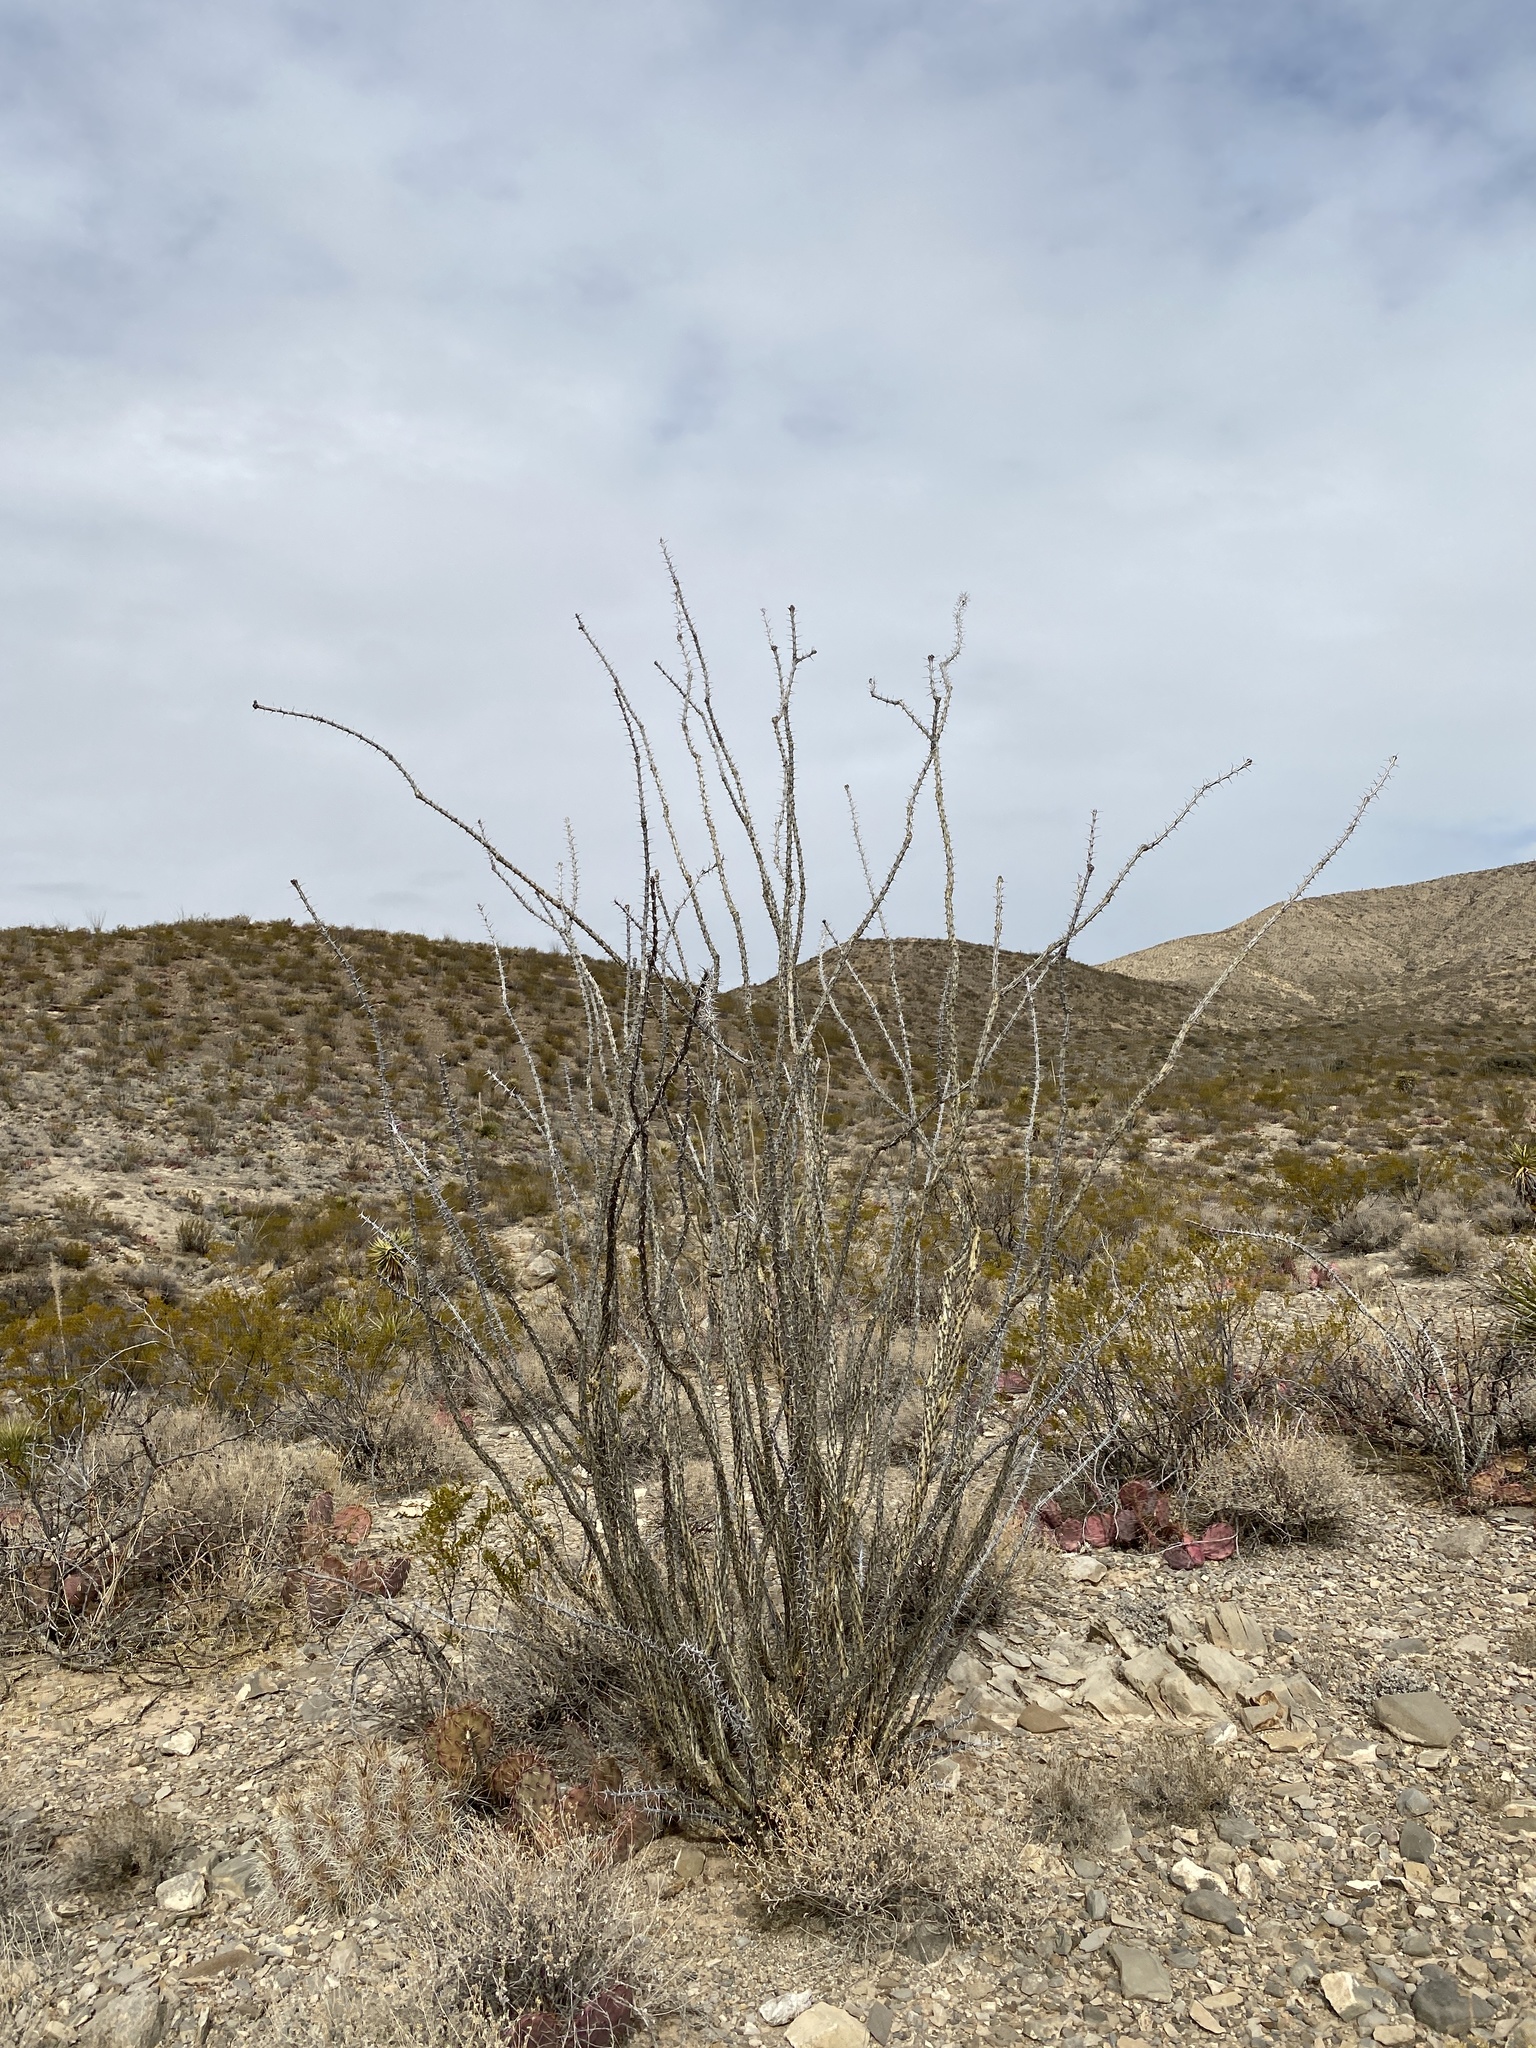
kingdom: Plantae
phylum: Tracheophyta
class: Magnoliopsida
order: Ericales
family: Fouquieriaceae
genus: Fouquieria
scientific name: Fouquieria splendens
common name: Vine-cactus
